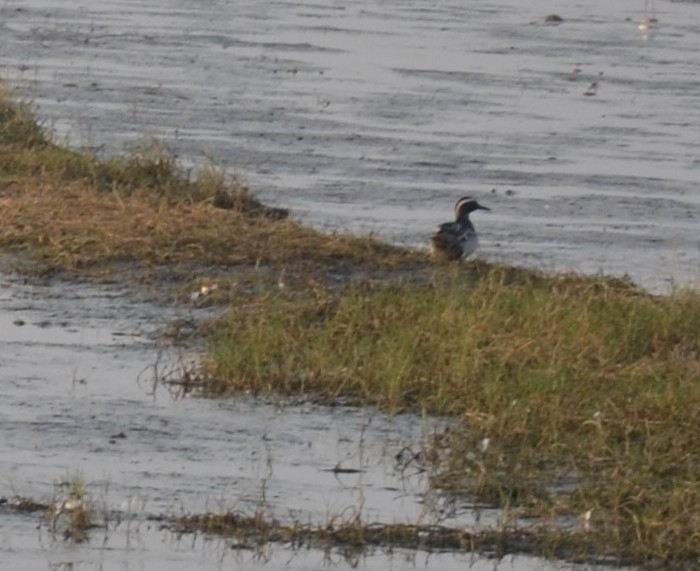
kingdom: Animalia
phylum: Chordata
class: Aves
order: Anseriformes
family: Anatidae
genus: Spatula
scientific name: Spatula querquedula
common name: Garganey
